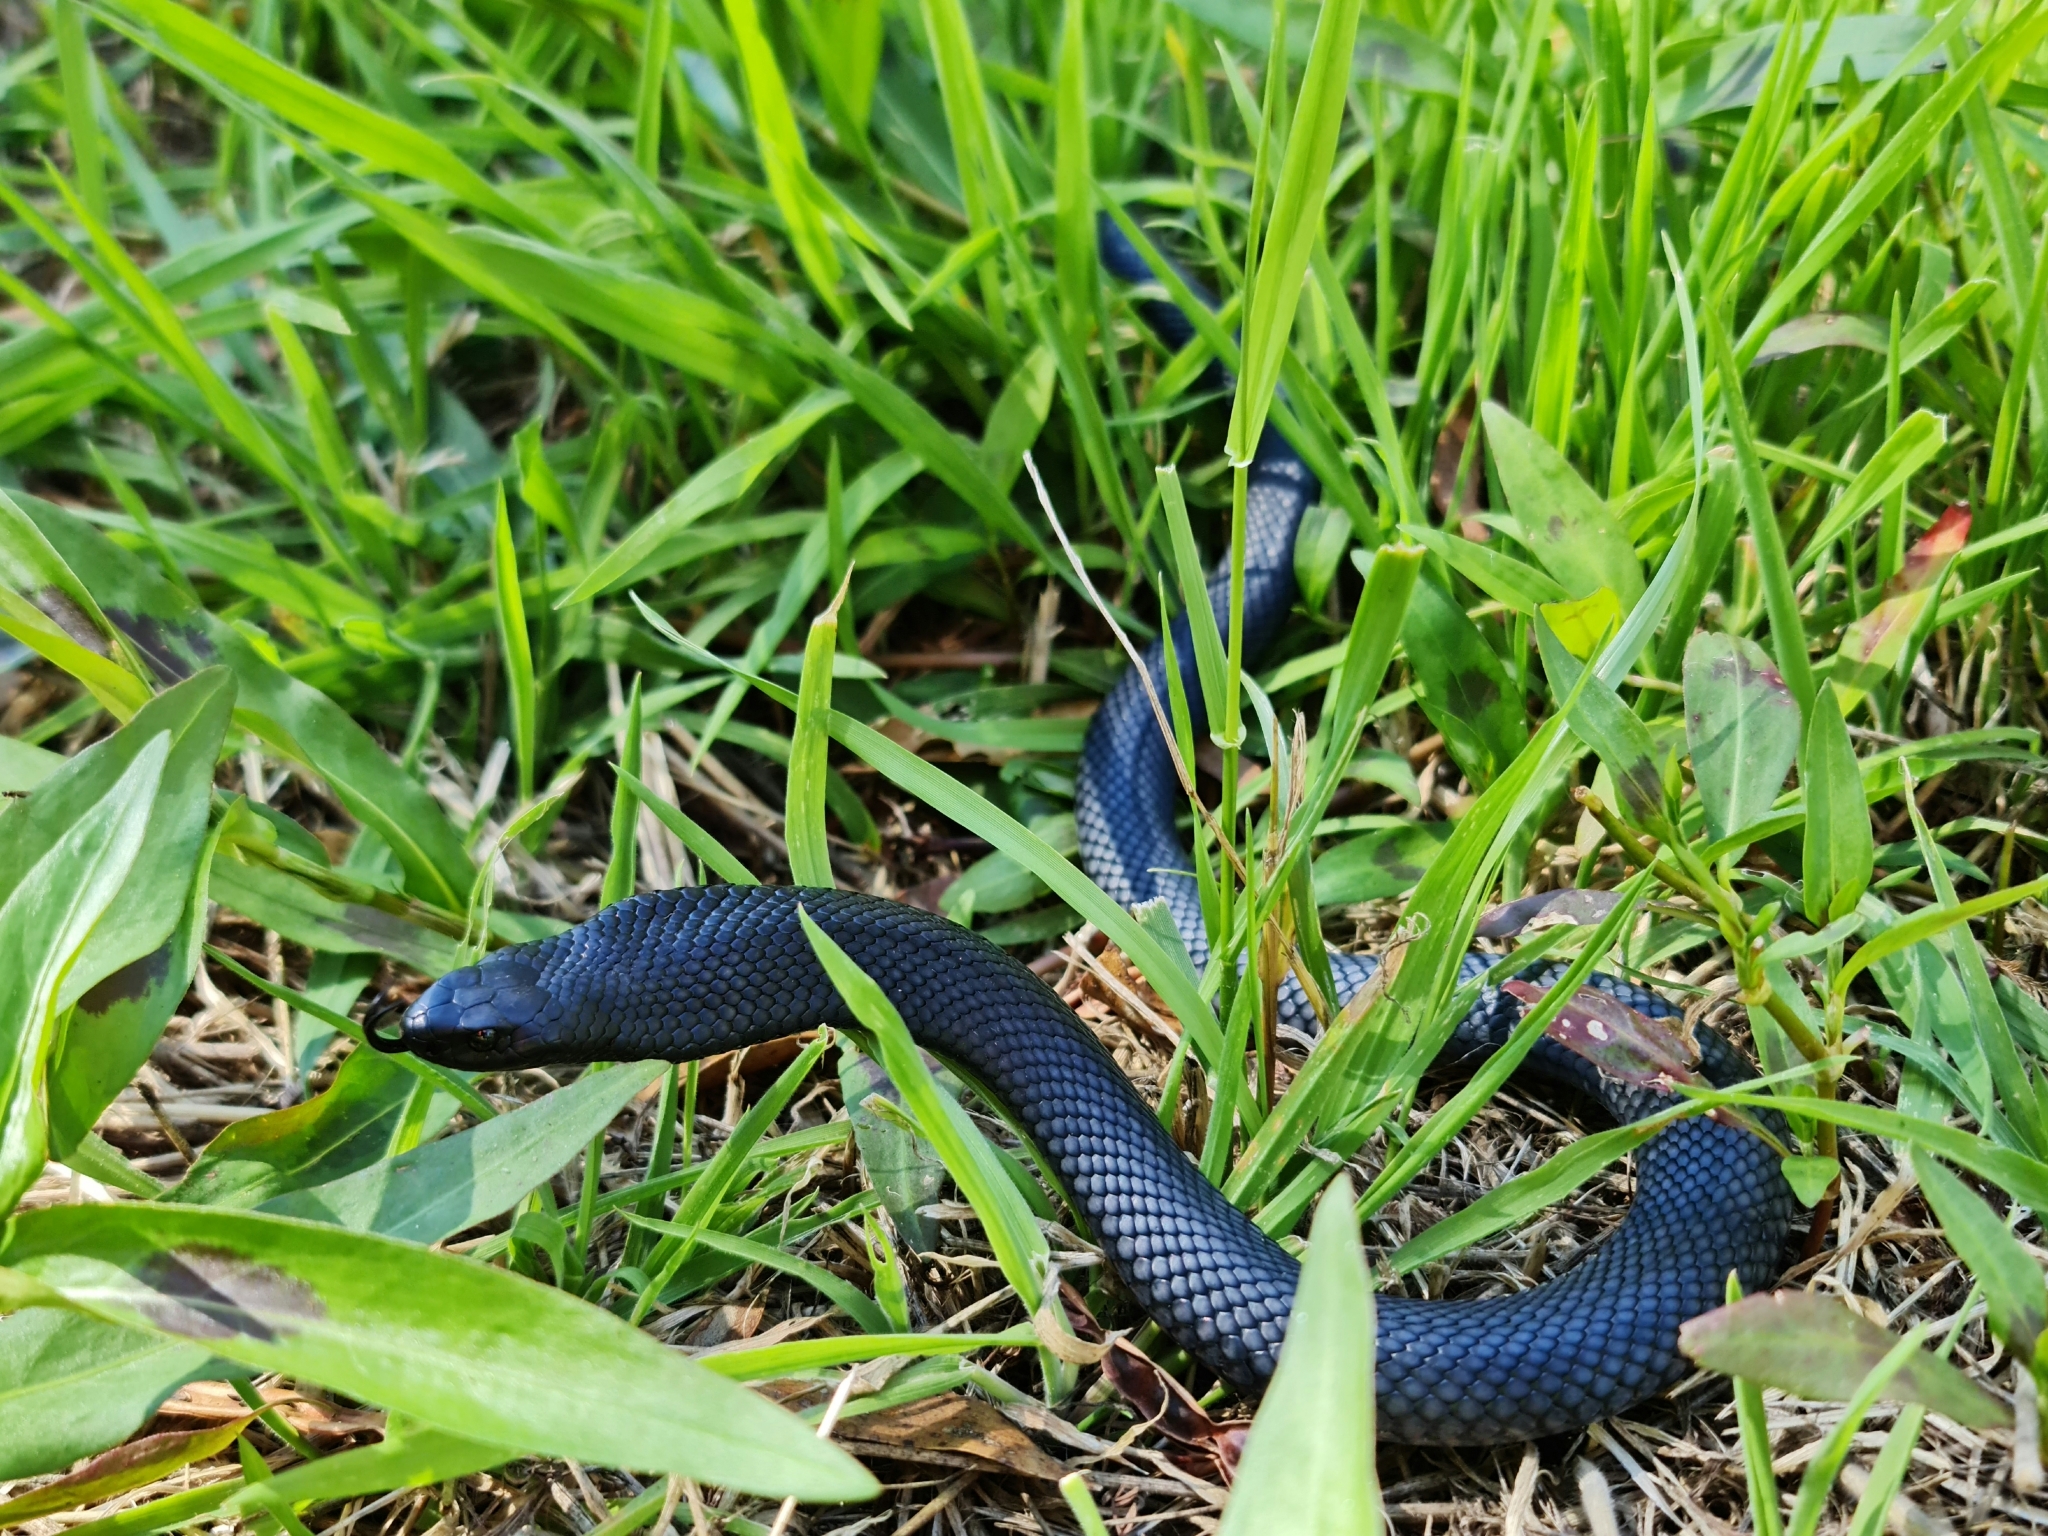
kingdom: Animalia
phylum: Chordata
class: Squamata
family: Elapidae
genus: Pseudechis
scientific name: Pseudechis porphyriacus
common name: Australian black snake
